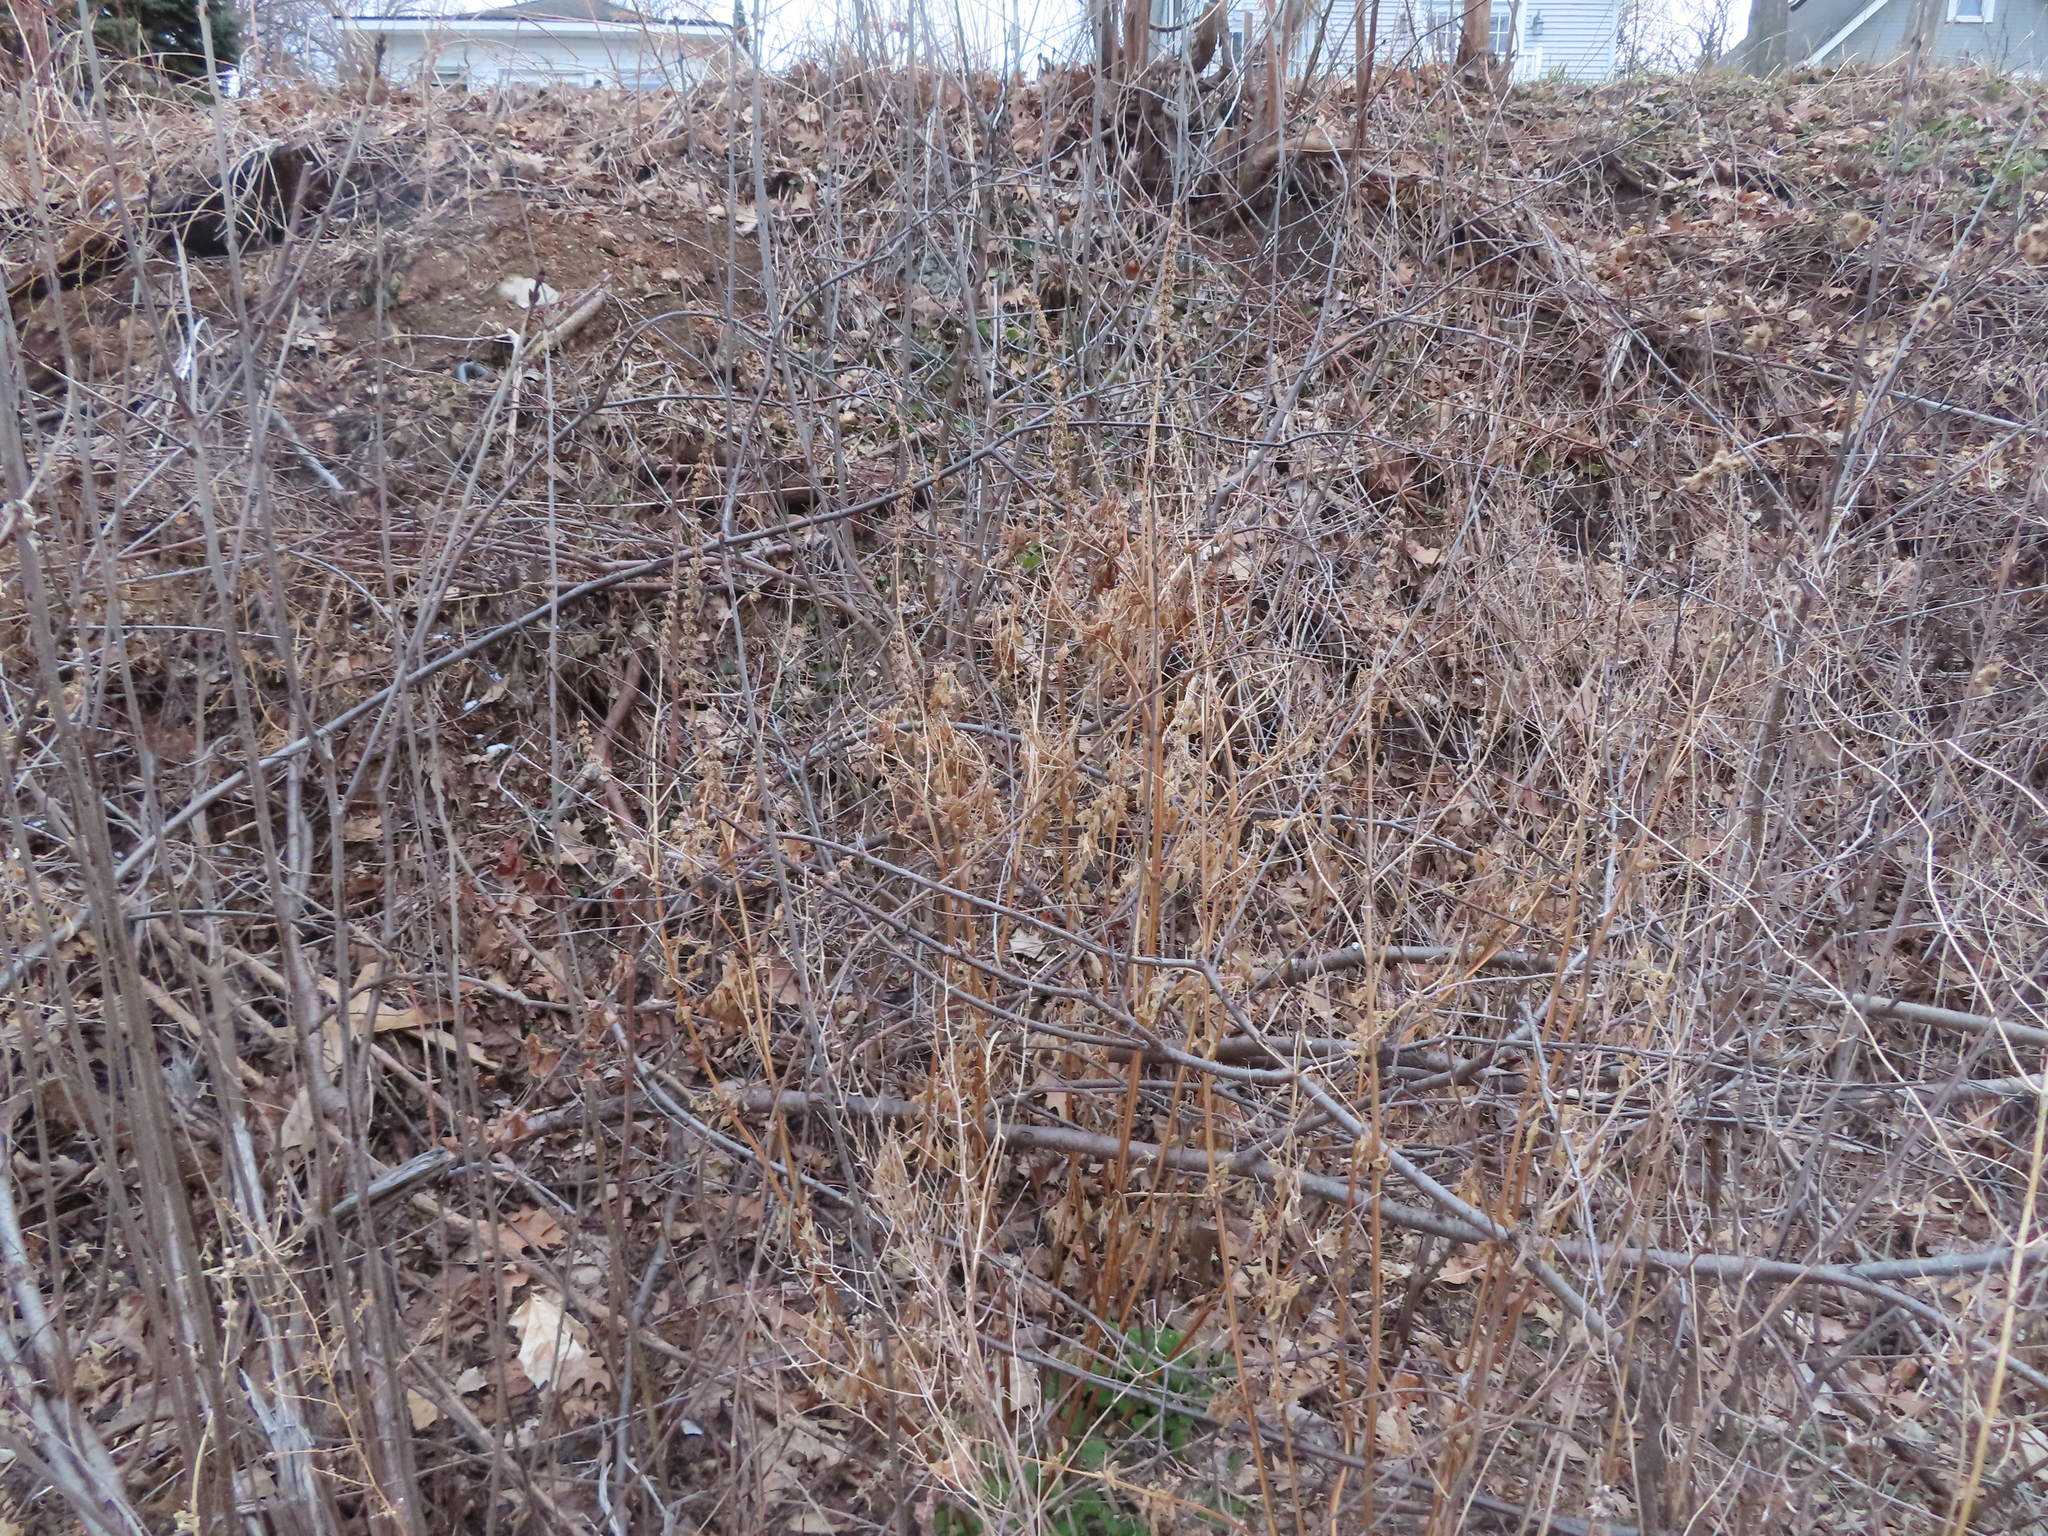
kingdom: Plantae
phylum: Tracheophyta
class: Magnoliopsida
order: Lamiales
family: Lamiaceae
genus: Leonurus
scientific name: Leonurus cardiaca
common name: Motherwort
